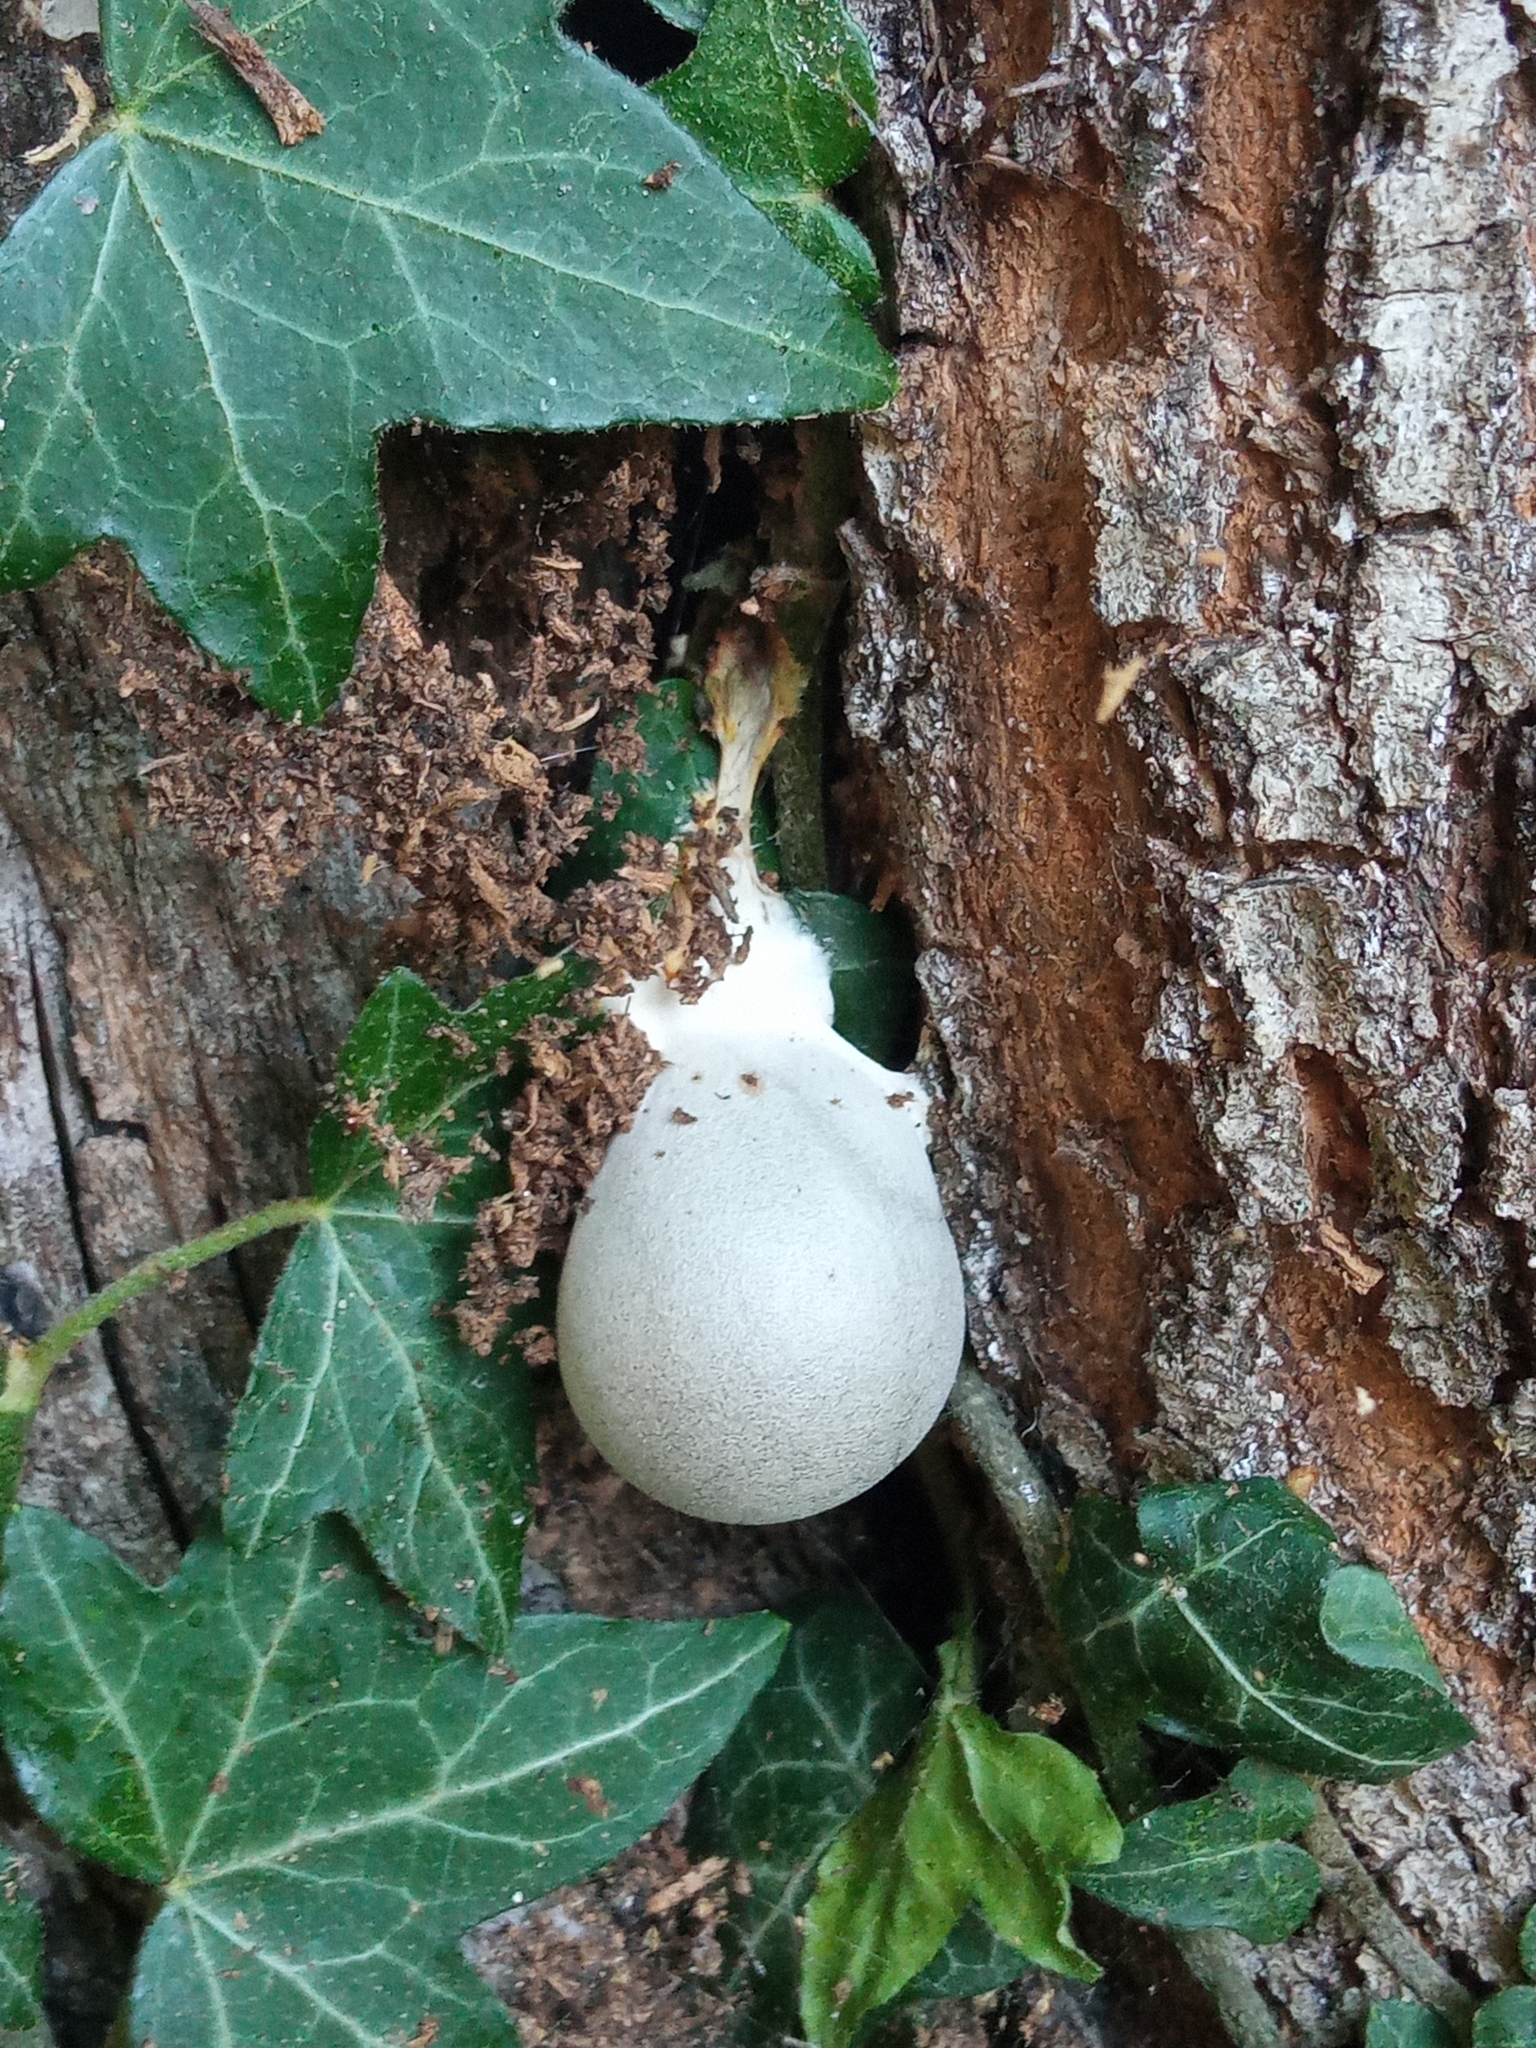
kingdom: Protozoa
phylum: Mycetozoa
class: Myxomycetes
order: Cribrariales
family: Tubiferaceae
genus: Lycogala
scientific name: Lycogala flavofuscum
